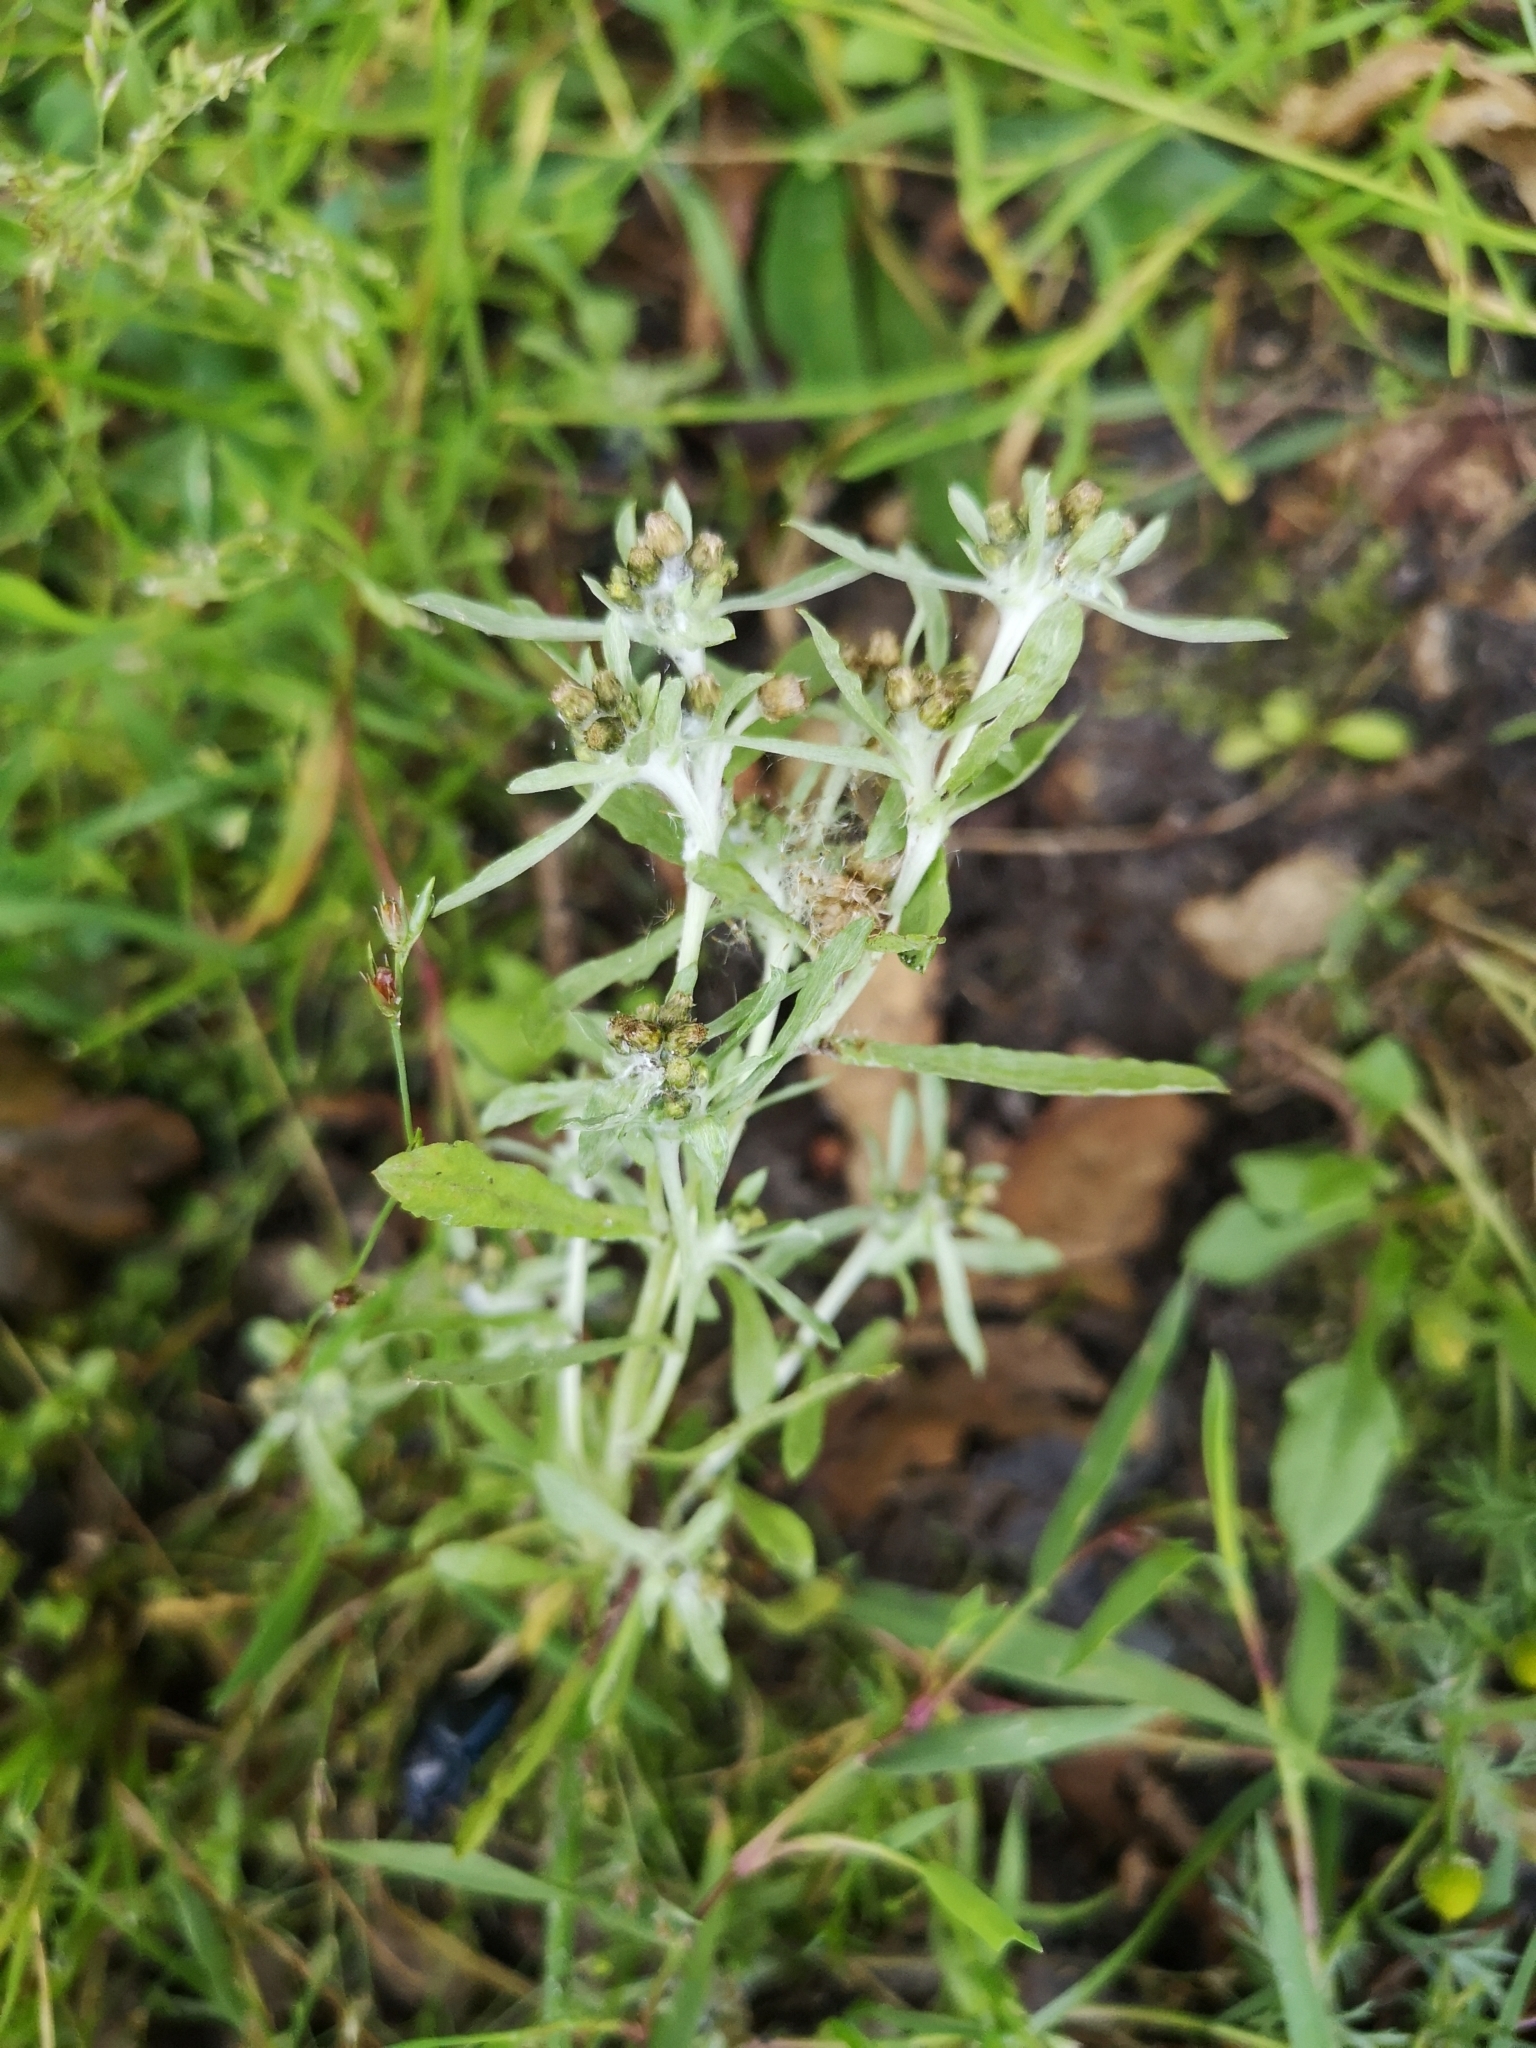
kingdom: Plantae
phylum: Tracheophyta
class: Magnoliopsida
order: Asterales
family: Asteraceae
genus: Gnaphalium
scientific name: Gnaphalium uliginosum
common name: Marsh cudweed
